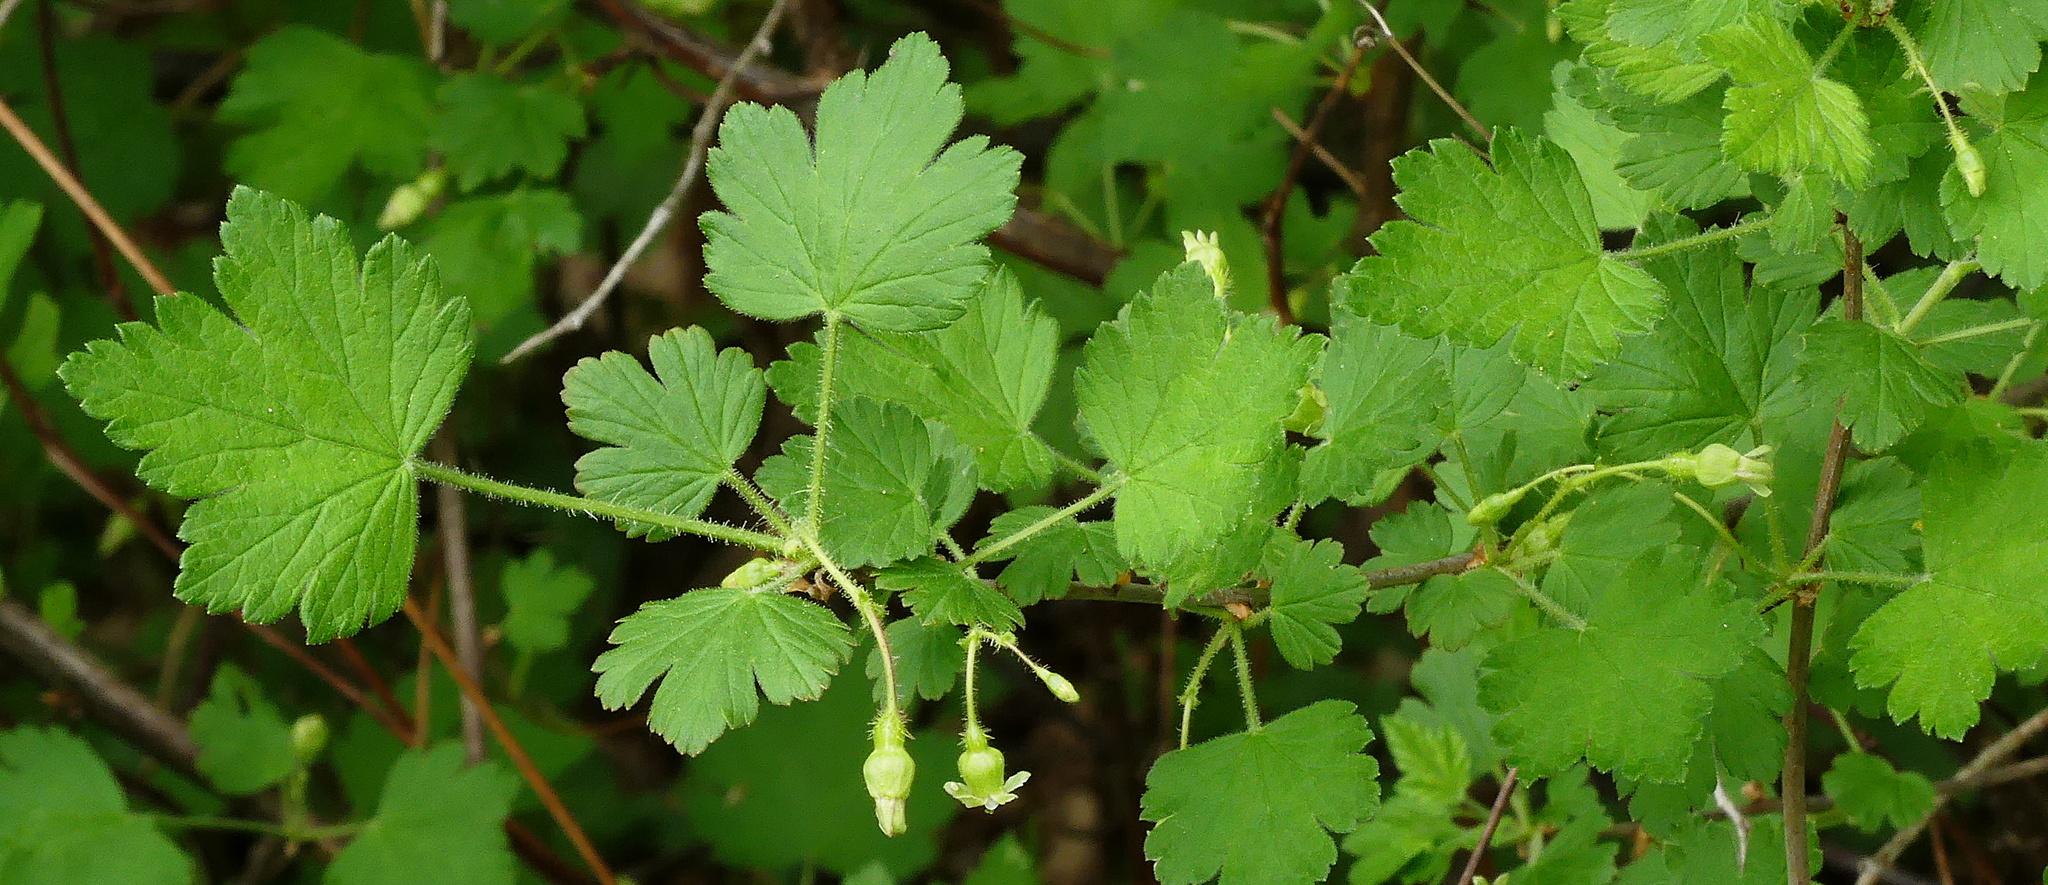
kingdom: Plantae
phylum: Tracheophyta
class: Magnoliopsida
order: Saxifragales
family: Grossulariaceae
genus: Ribes
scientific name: Ribes cynosbati
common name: American gooseberry
